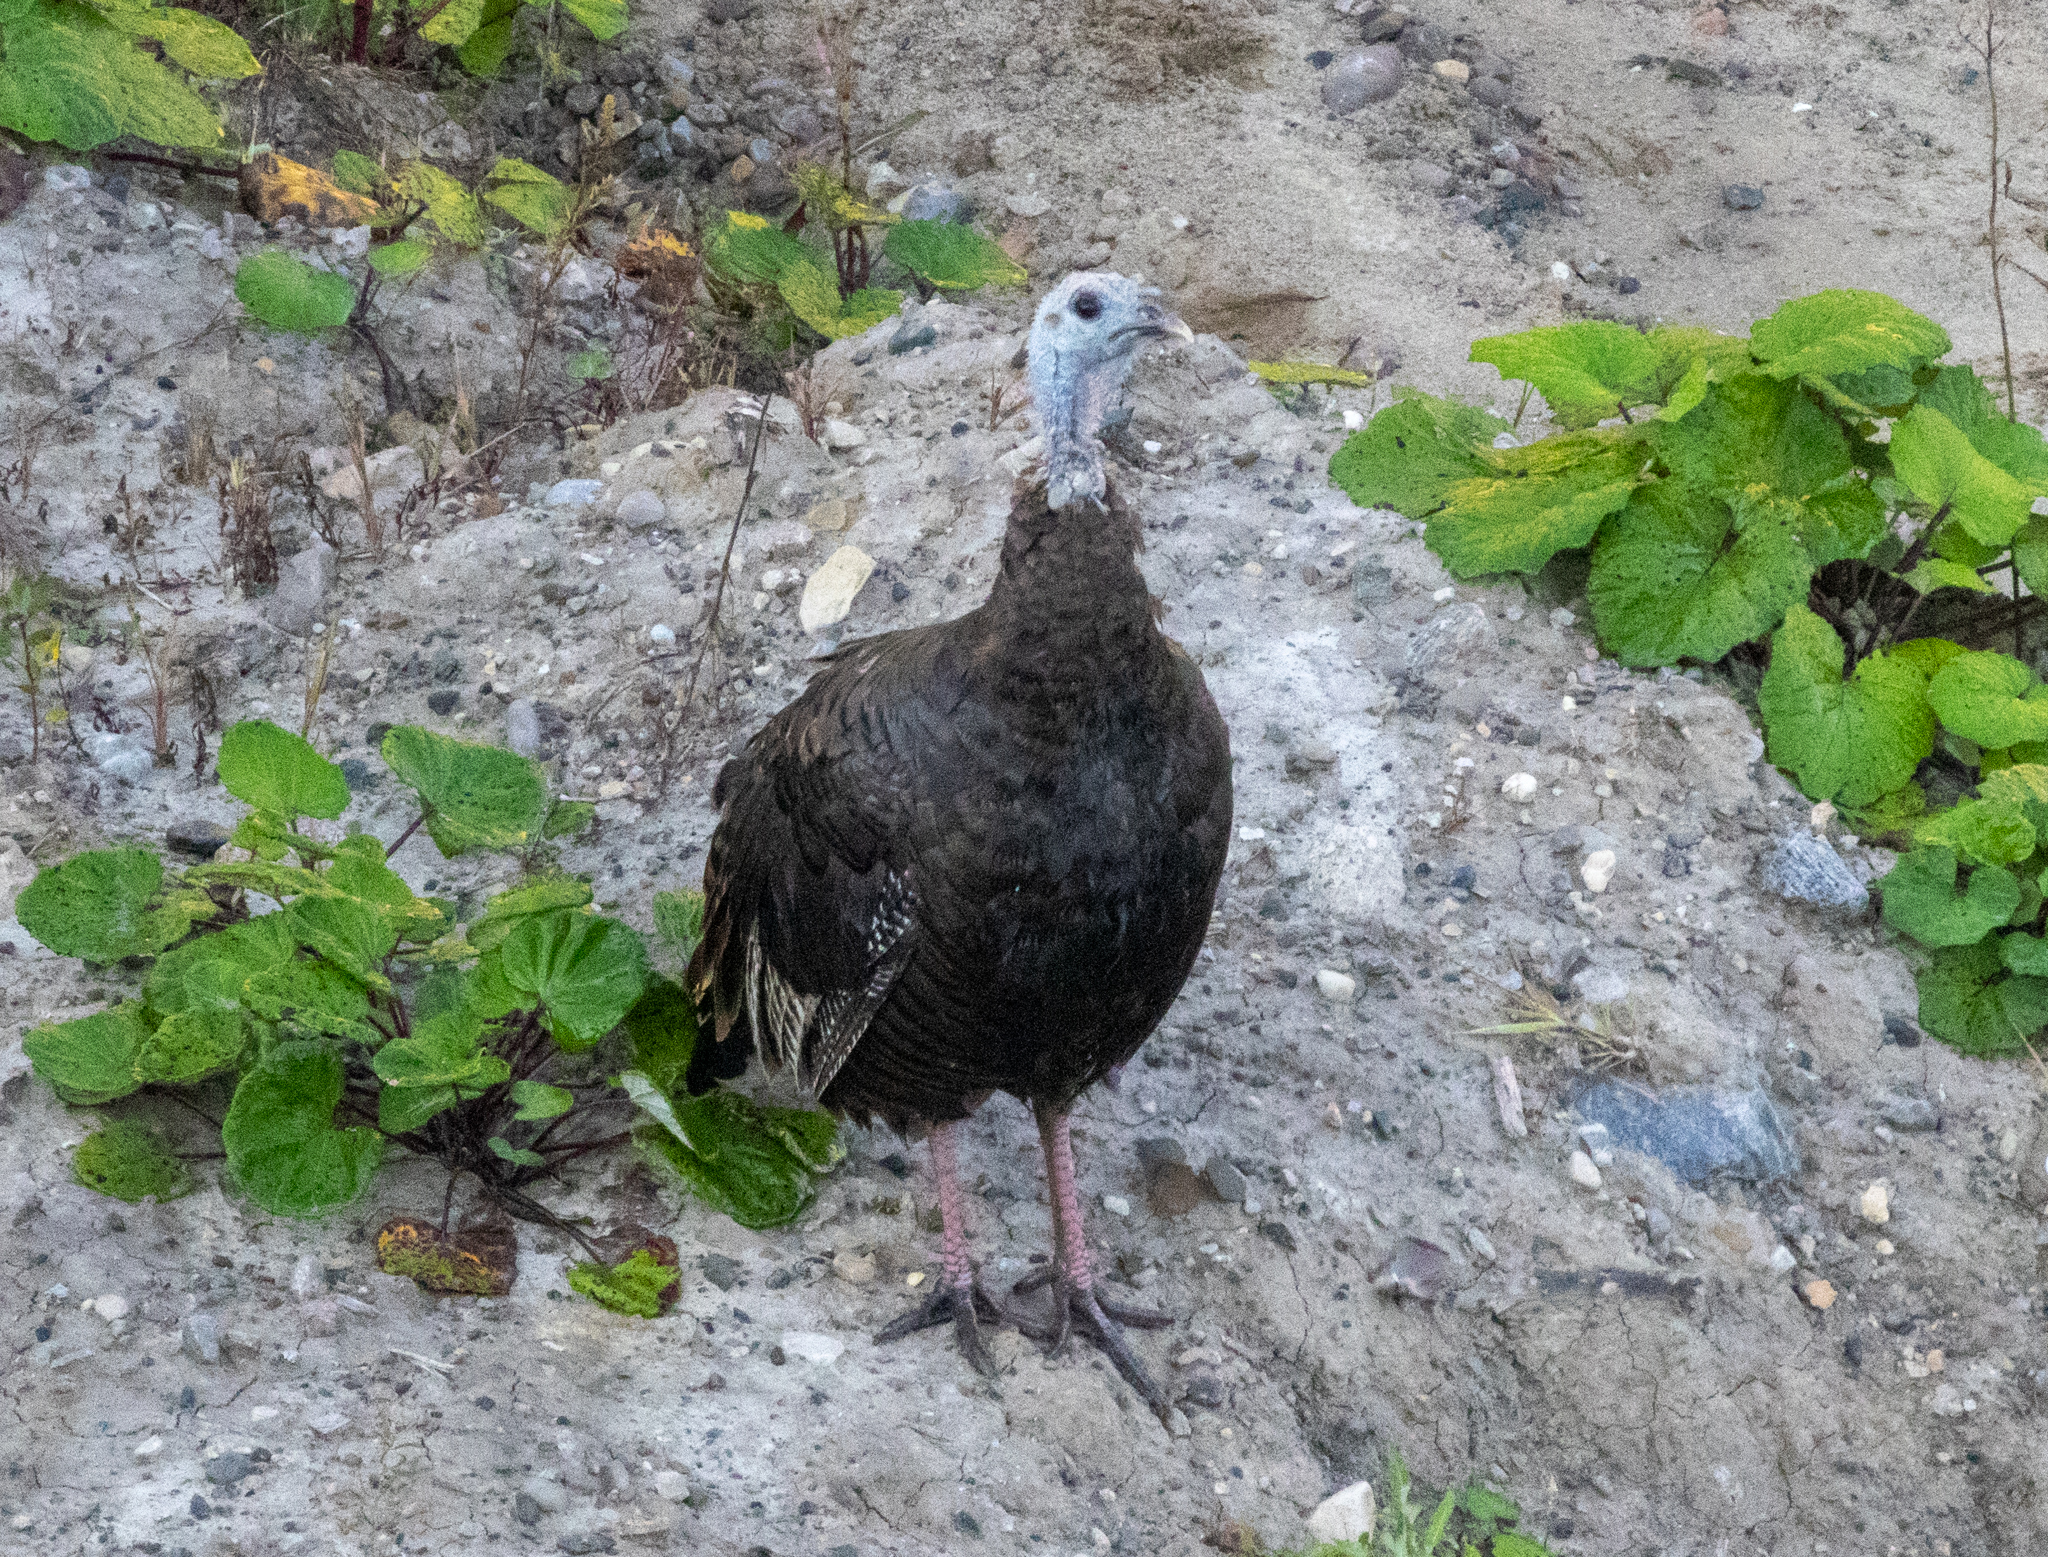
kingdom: Animalia
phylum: Chordata
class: Aves
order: Galliformes
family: Phasianidae
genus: Meleagris
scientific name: Meleagris gallopavo
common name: Wild turkey
